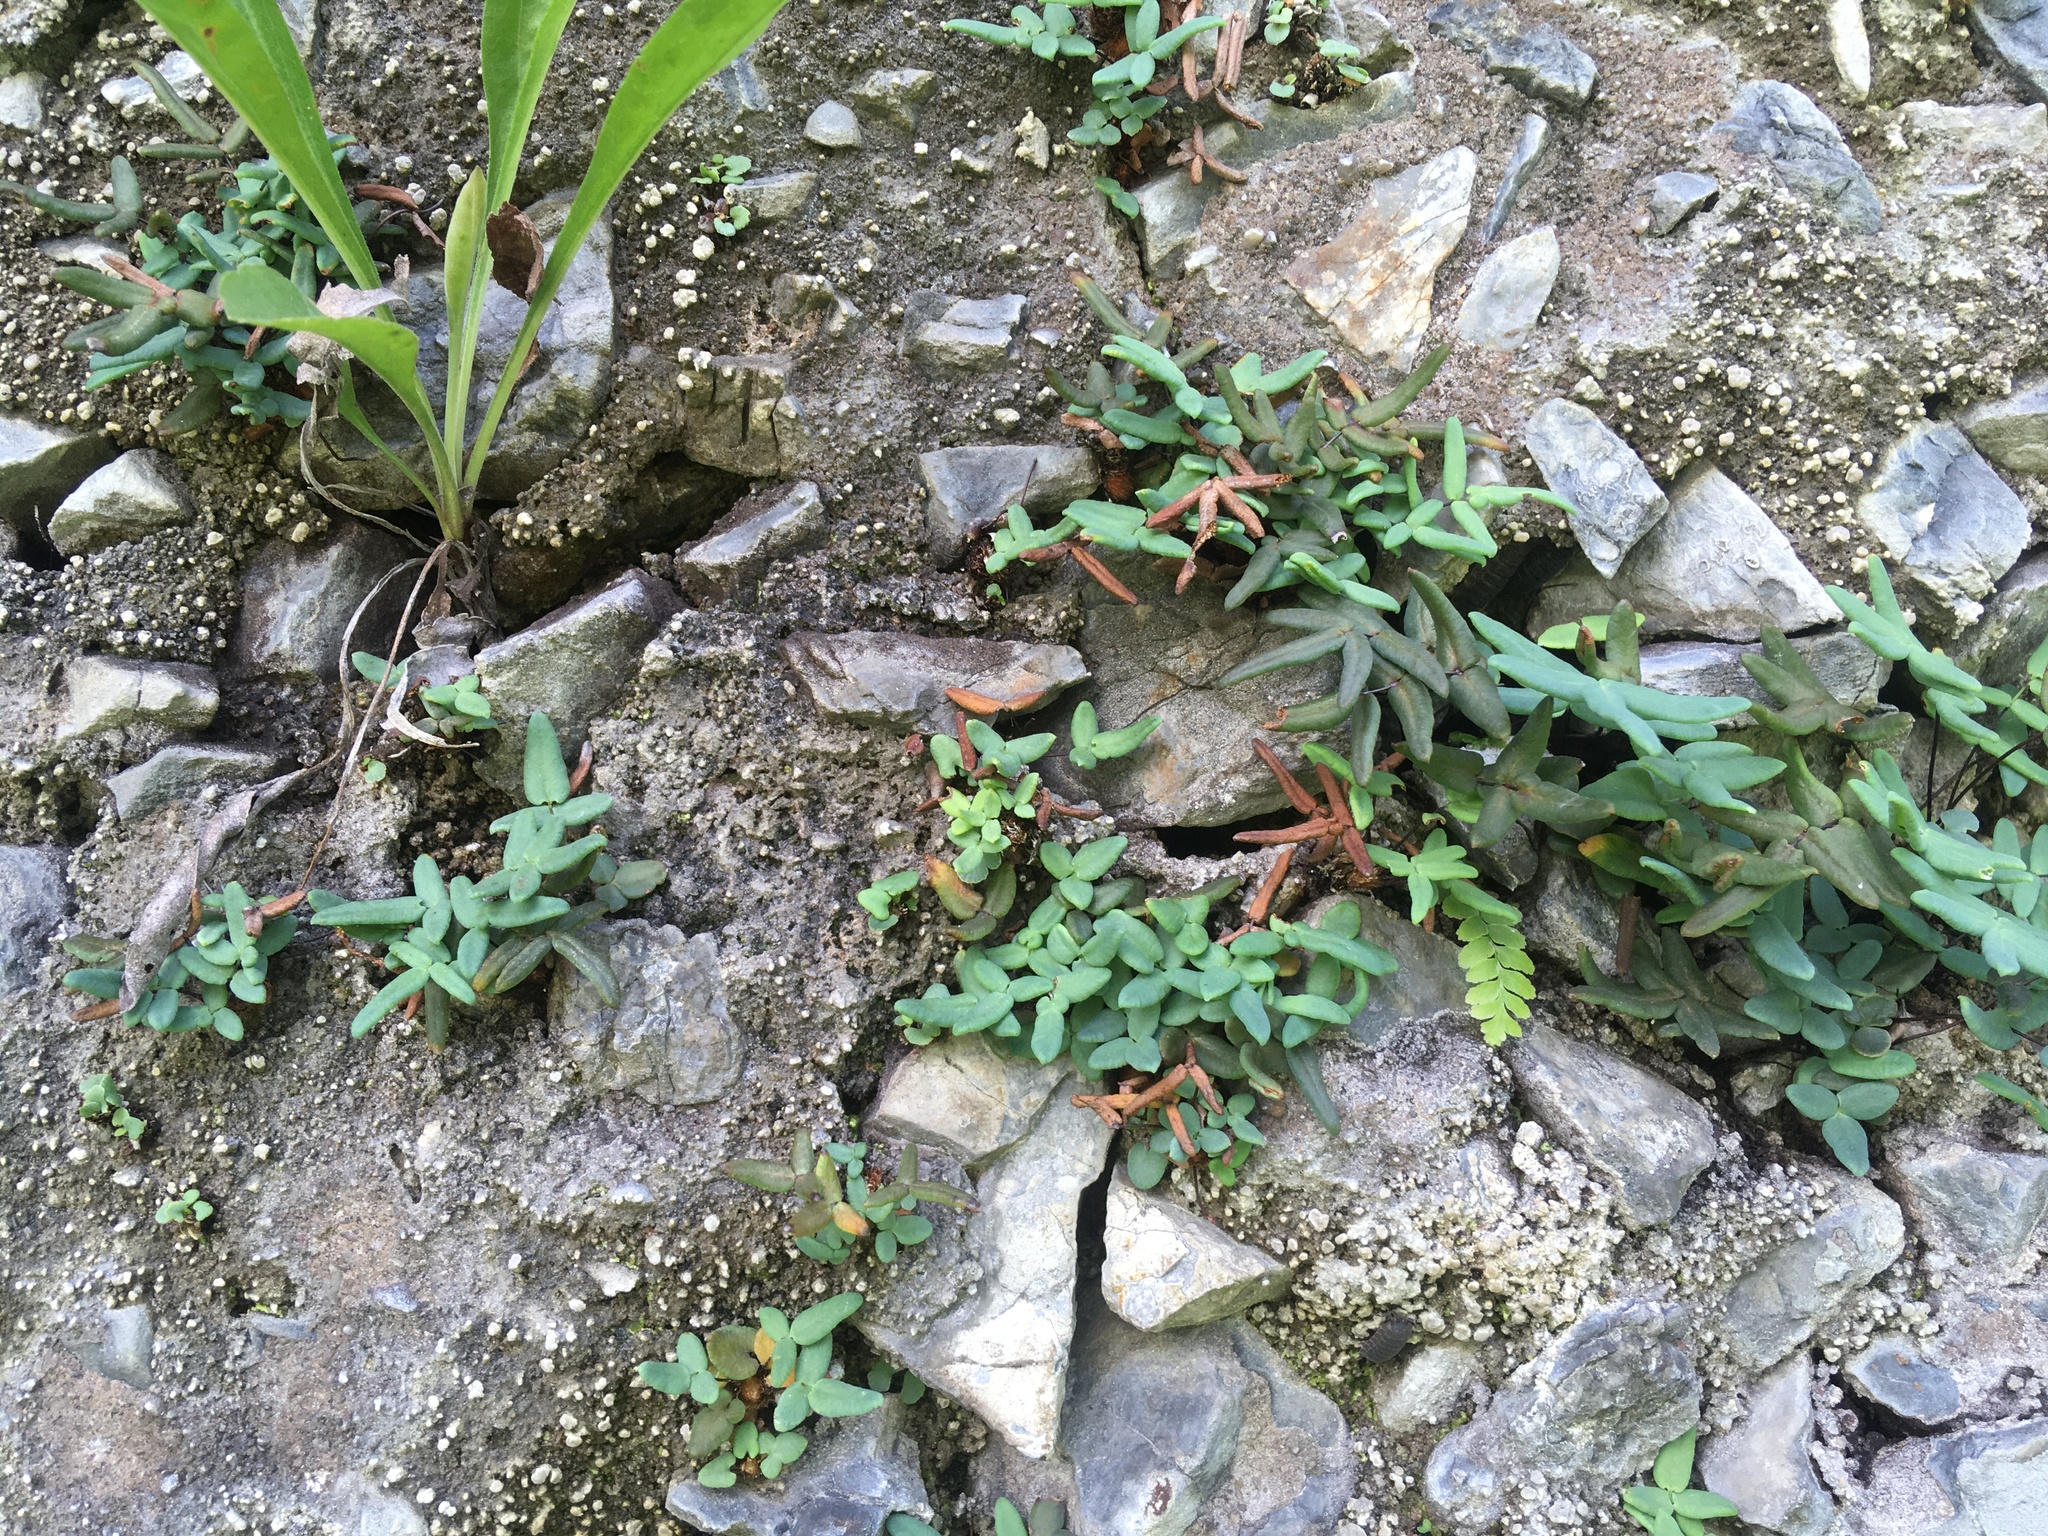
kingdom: Plantae
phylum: Tracheophyta
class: Polypodiopsida
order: Polypodiales
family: Pteridaceae
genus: Pellaea
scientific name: Pellaea glabella
